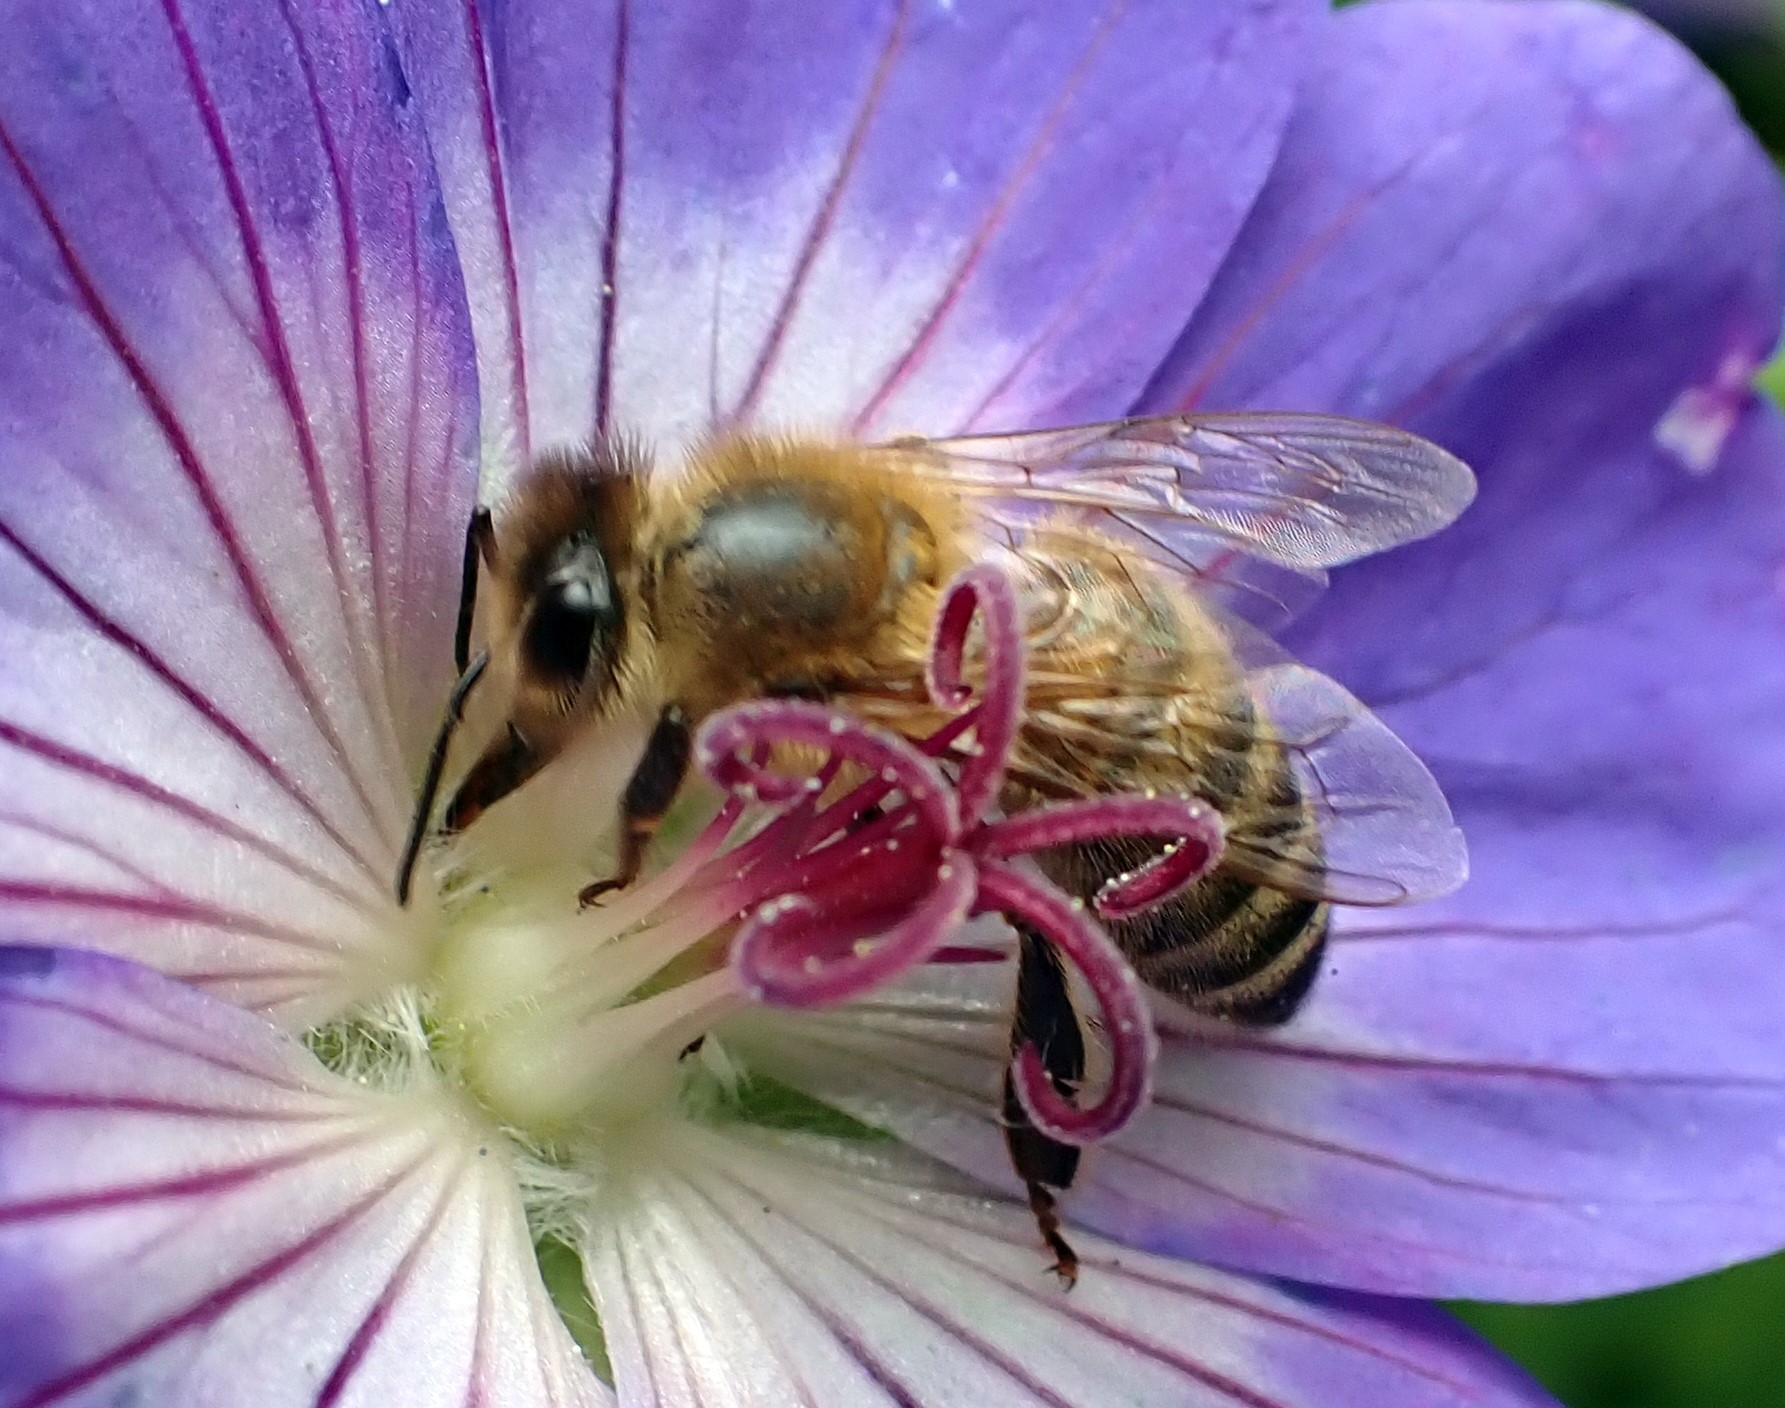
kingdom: Animalia
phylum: Arthropoda
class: Insecta
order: Hymenoptera
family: Apidae
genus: Apis
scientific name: Apis mellifera
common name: Honey bee
